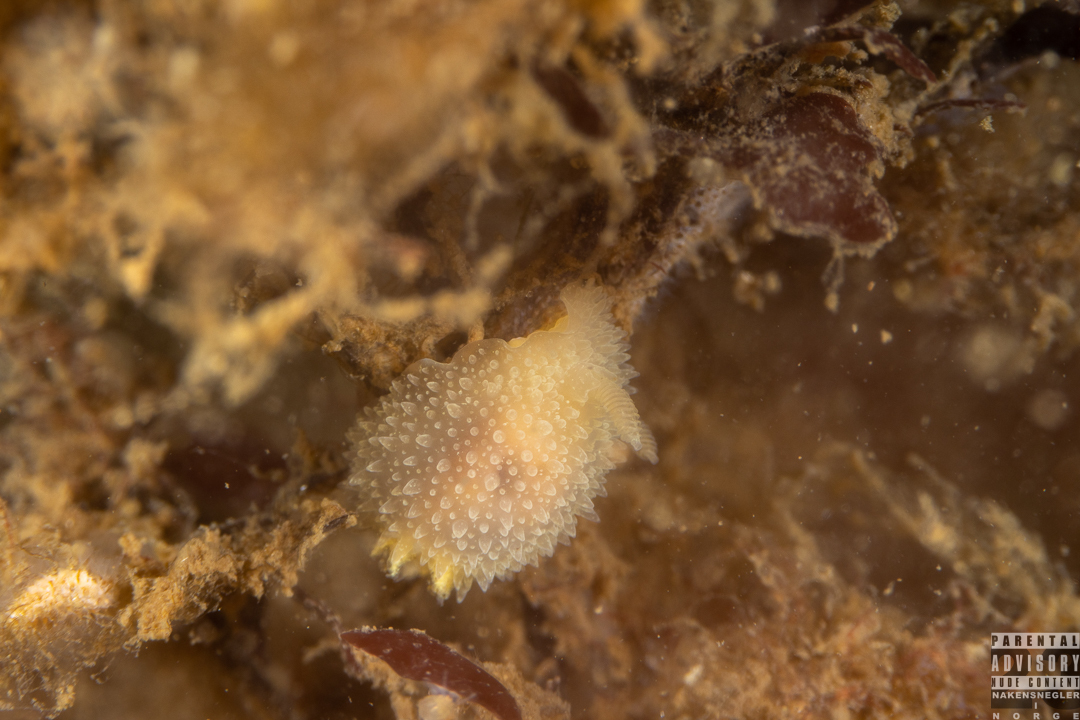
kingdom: Animalia
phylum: Mollusca
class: Gastropoda
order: Nudibranchia
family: Onchidorididae
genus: Acanthodoris
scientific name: Acanthodoris pilosa
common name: Hairy spiny doris
